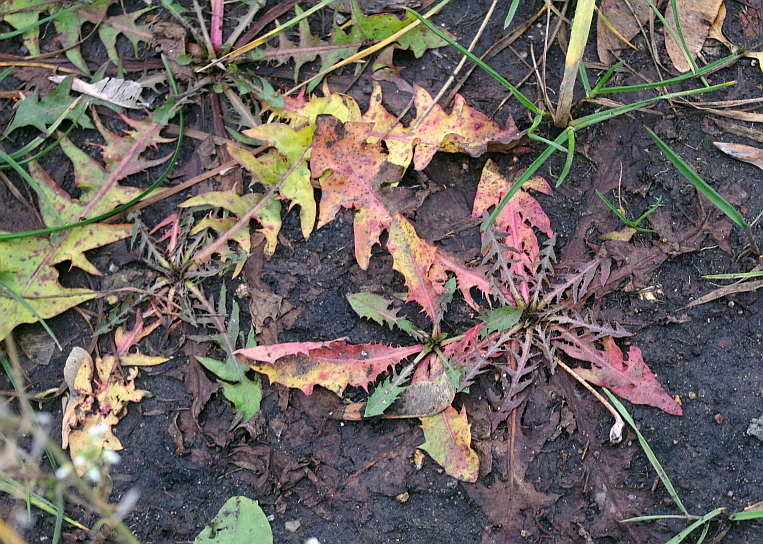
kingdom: Plantae
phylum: Tracheophyta
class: Magnoliopsida
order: Asterales
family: Asteraceae
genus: Taraxacum
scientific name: Taraxacum officinale
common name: Common dandelion
